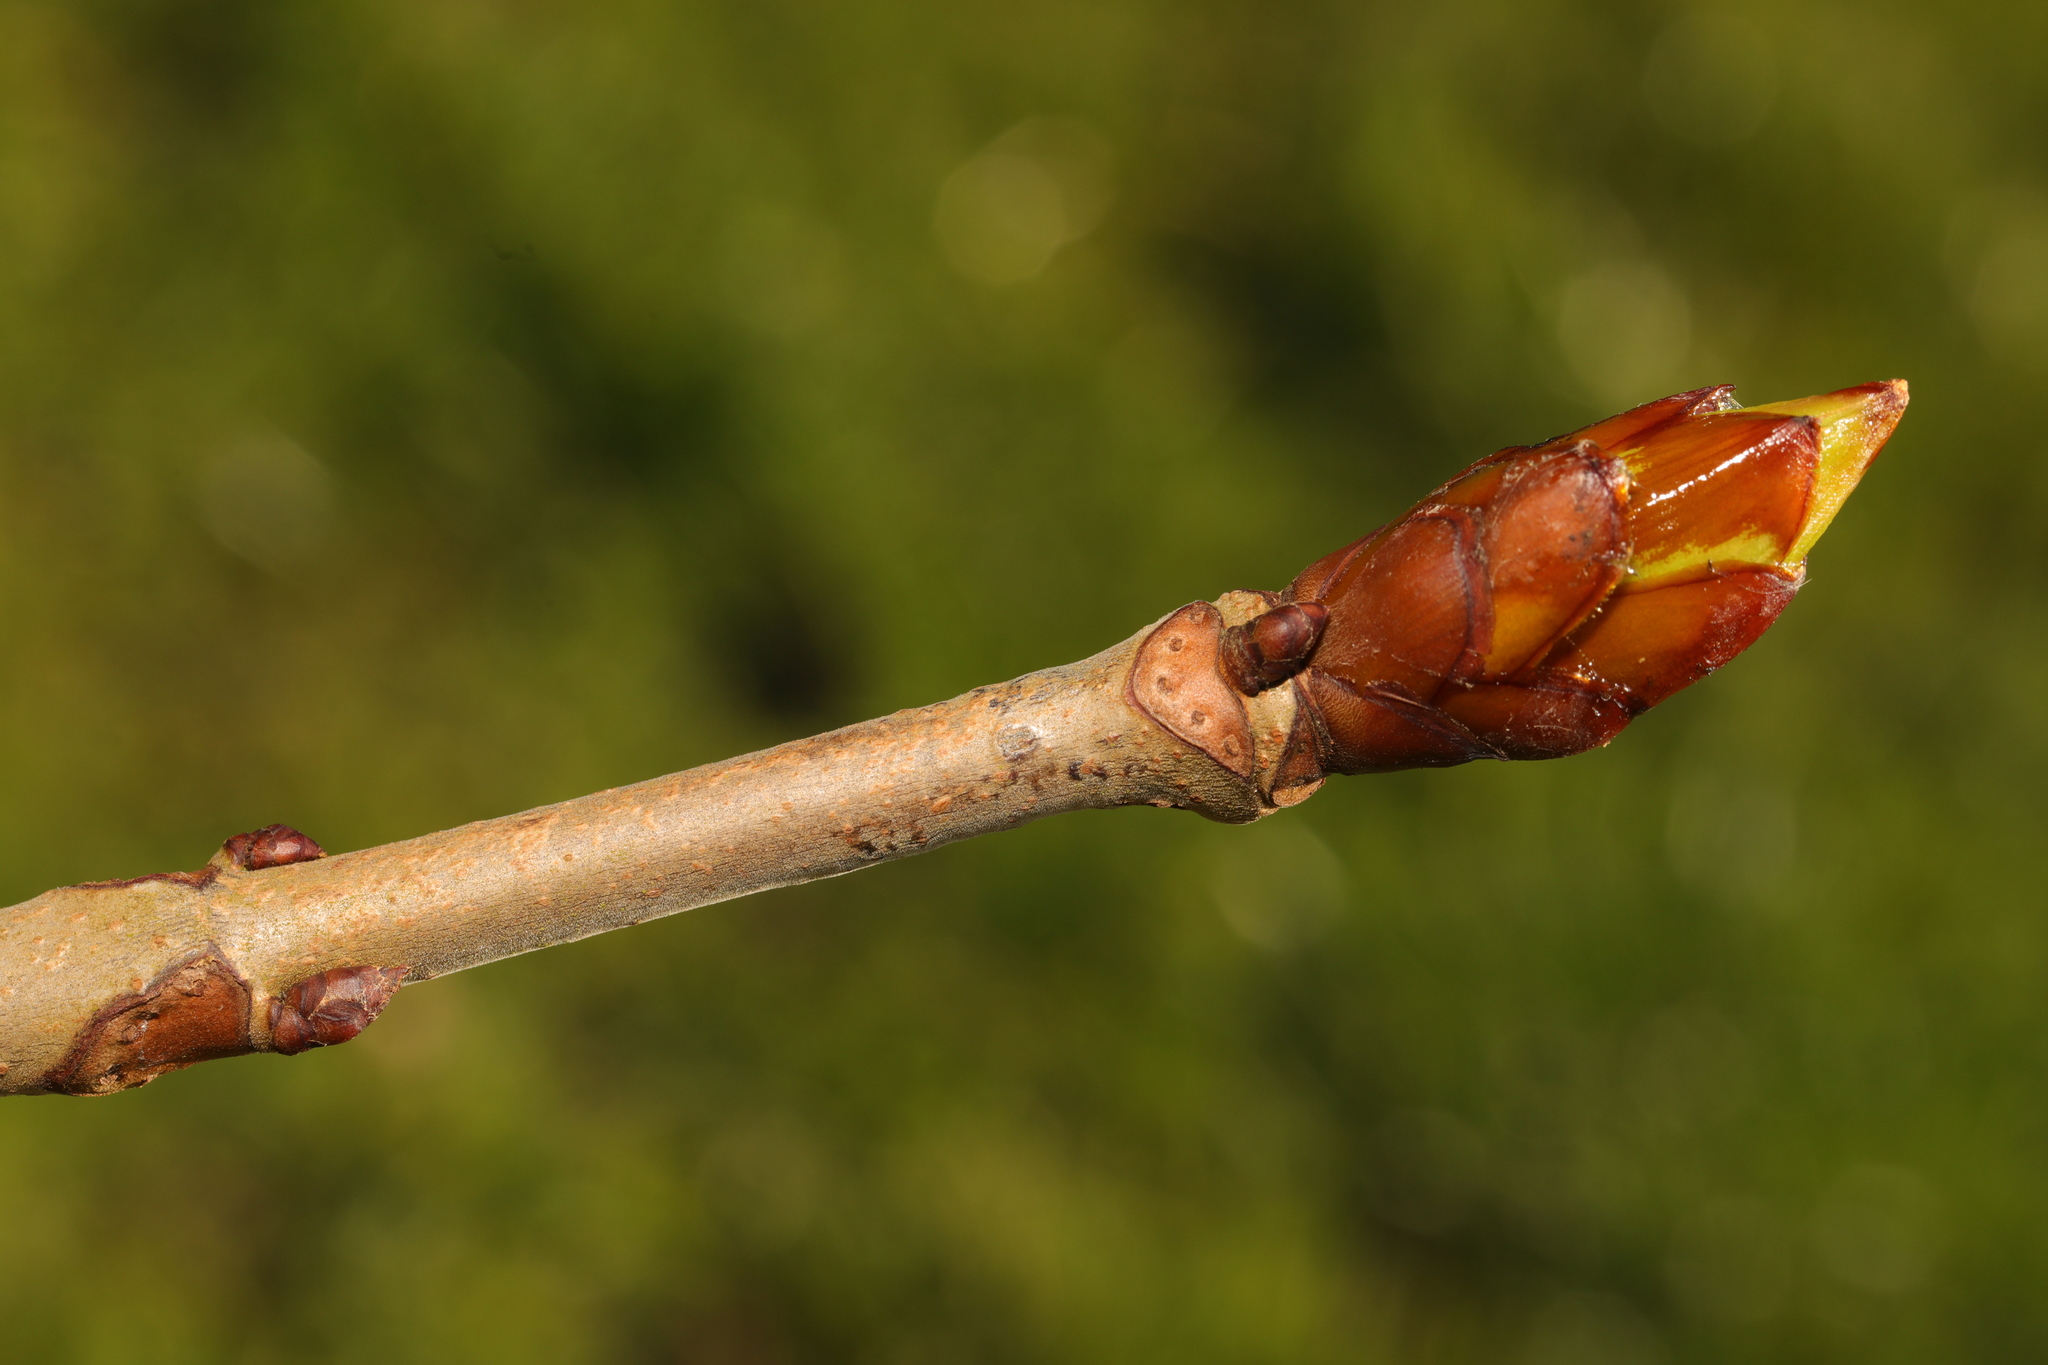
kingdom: Plantae
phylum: Tracheophyta
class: Magnoliopsida
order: Sapindales
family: Sapindaceae
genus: Aesculus
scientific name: Aesculus hippocastanum
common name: Horse-chestnut
